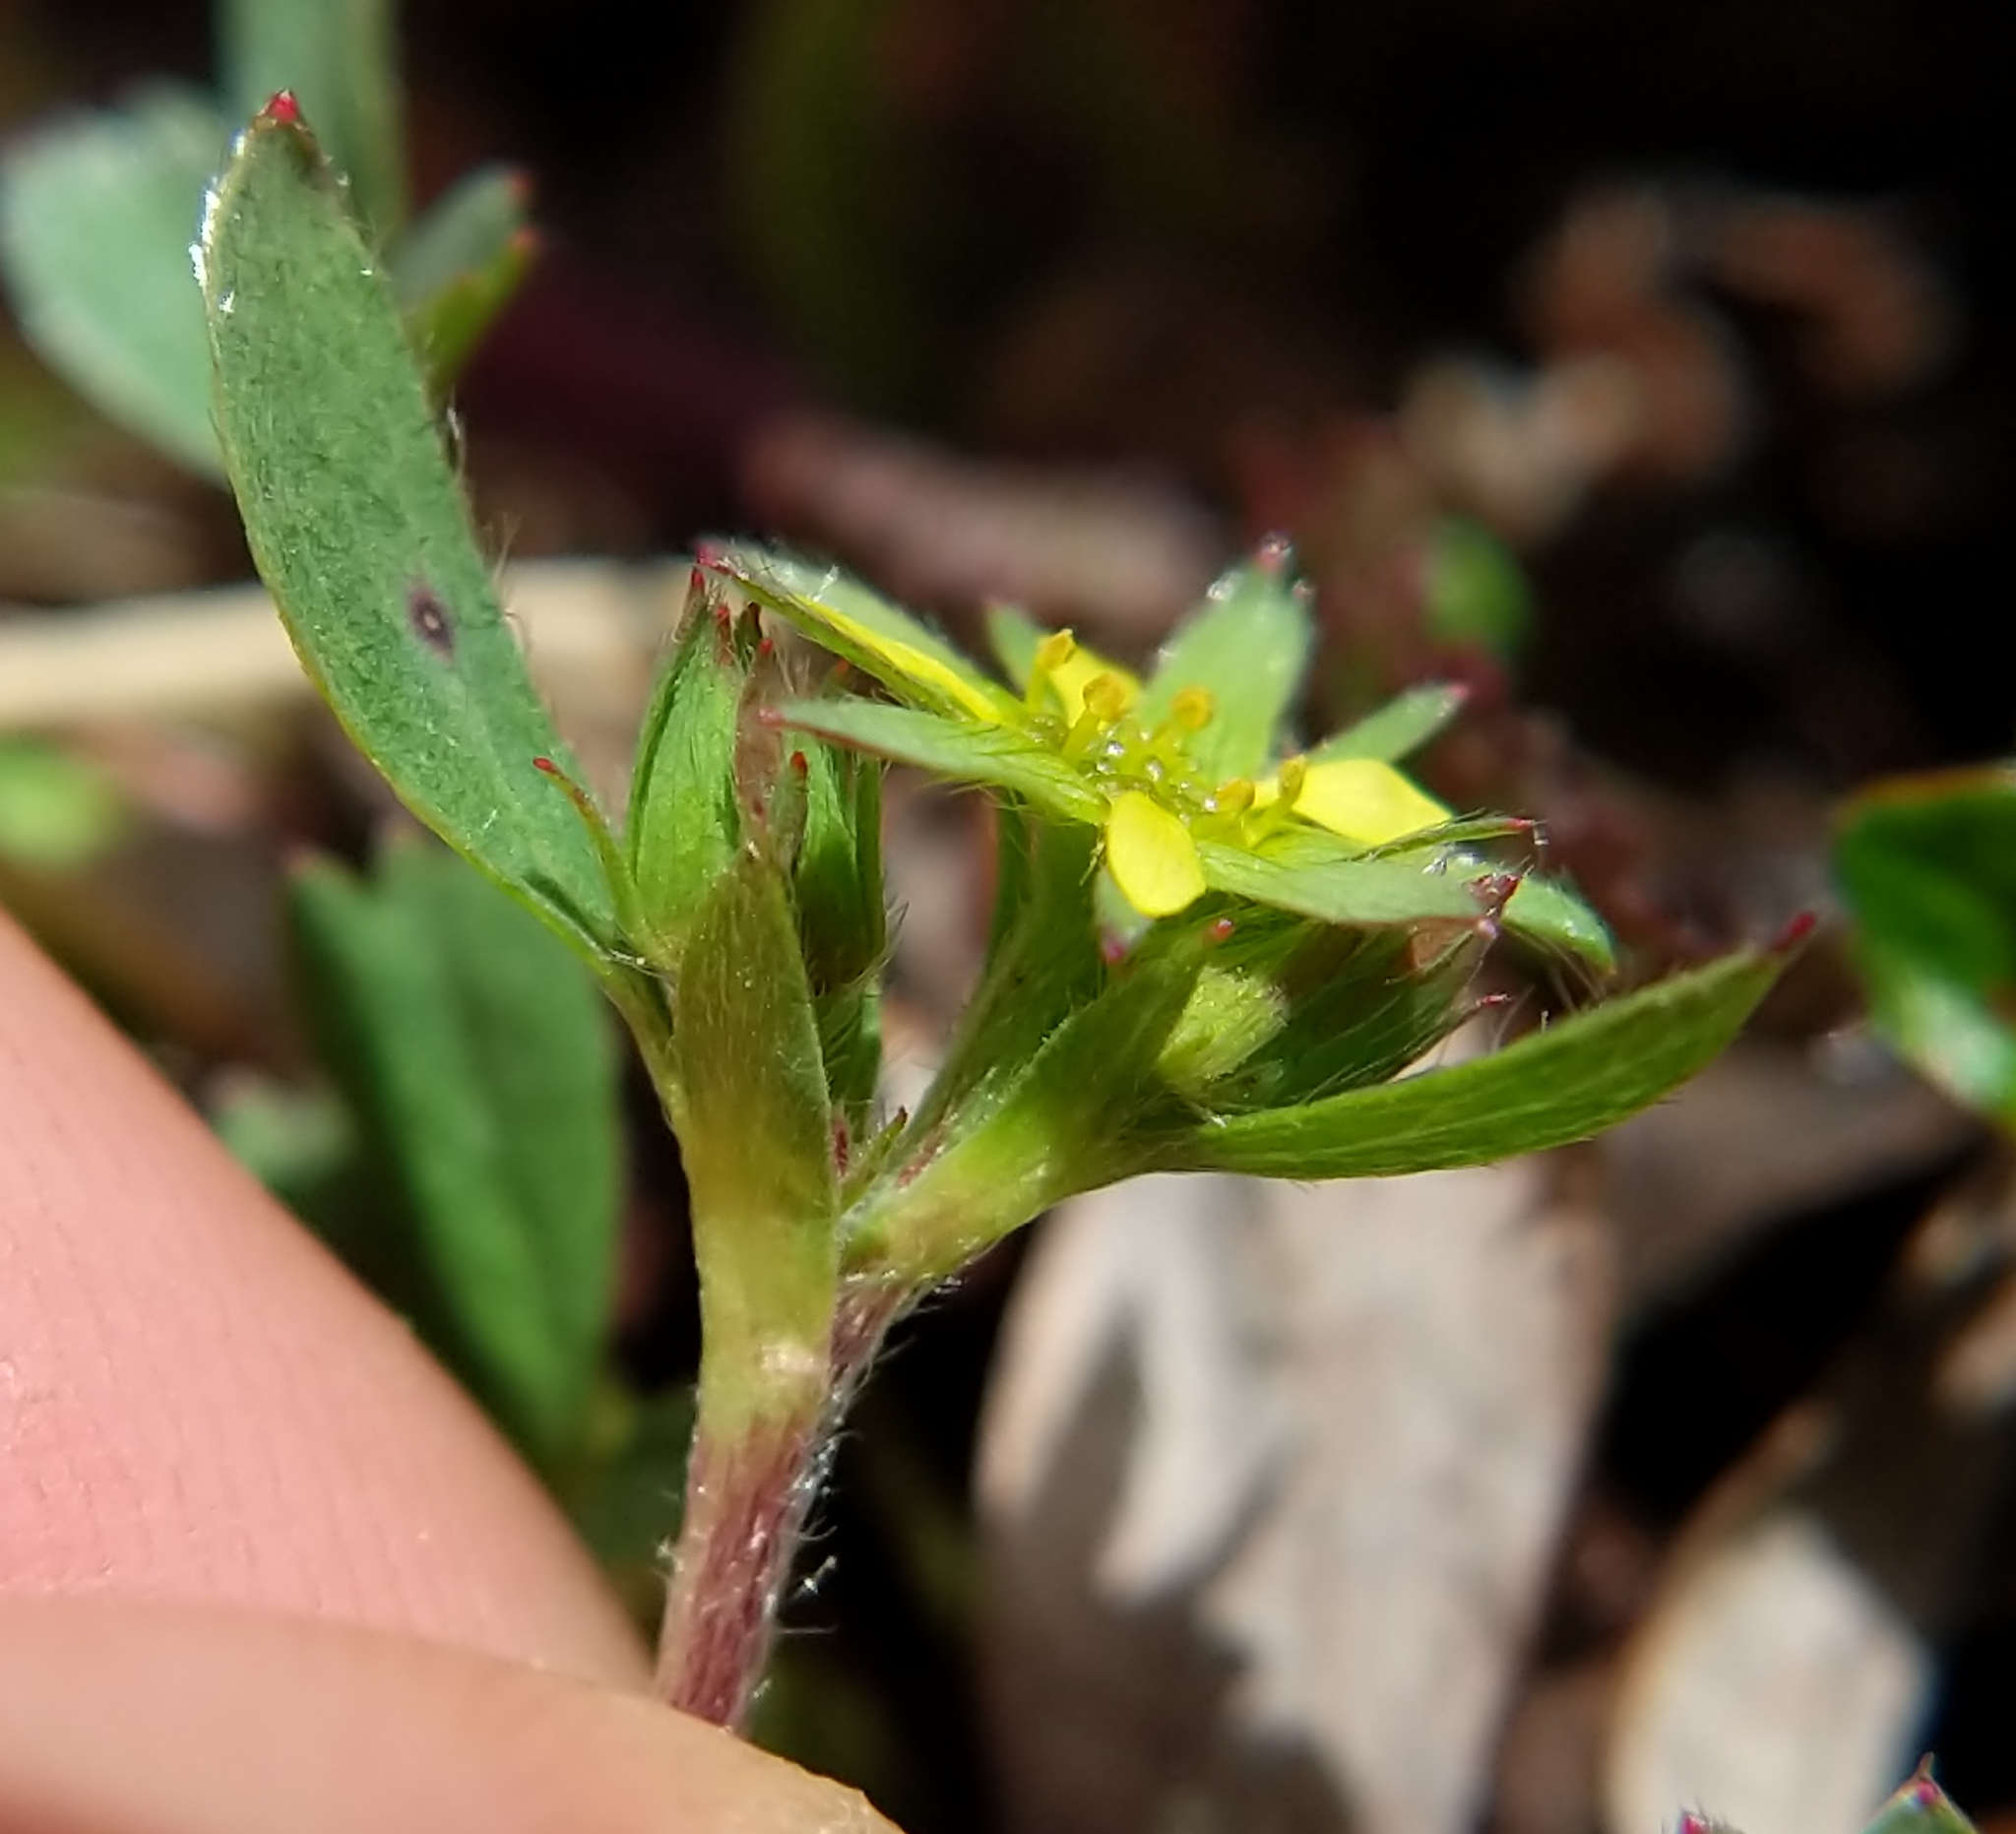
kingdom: Plantae
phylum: Tracheophyta
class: Magnoliopsida
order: Rosales
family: Rosaceae
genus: Sibbaldia
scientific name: Sibbaldia procumbens
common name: Creeping sibbaldia
